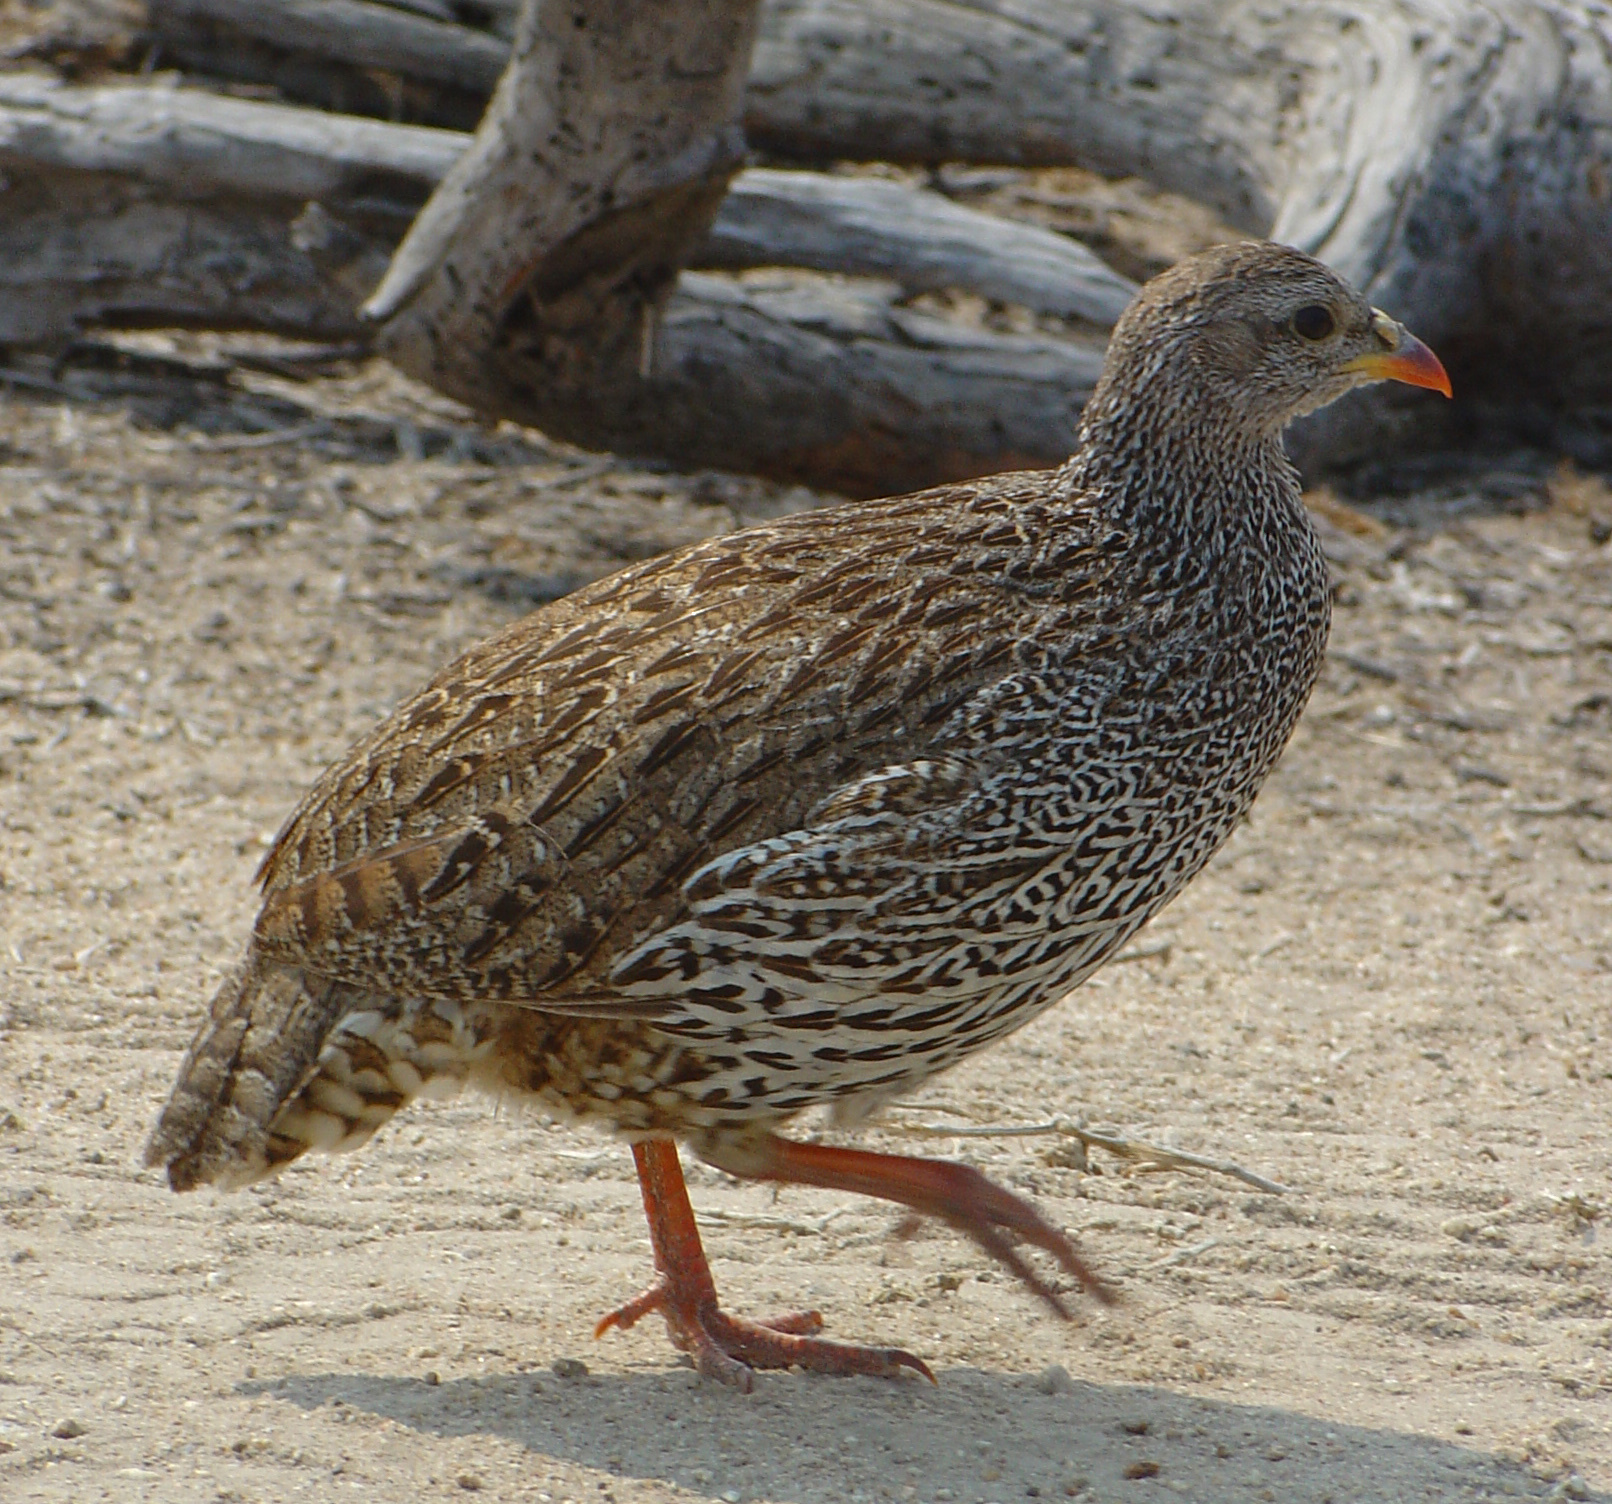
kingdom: Animalia
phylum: Chordata
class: Aves
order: Galliformes
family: Phasianidae
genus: Pternistis
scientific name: Pternistis natalensis
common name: Natal spurfowl
